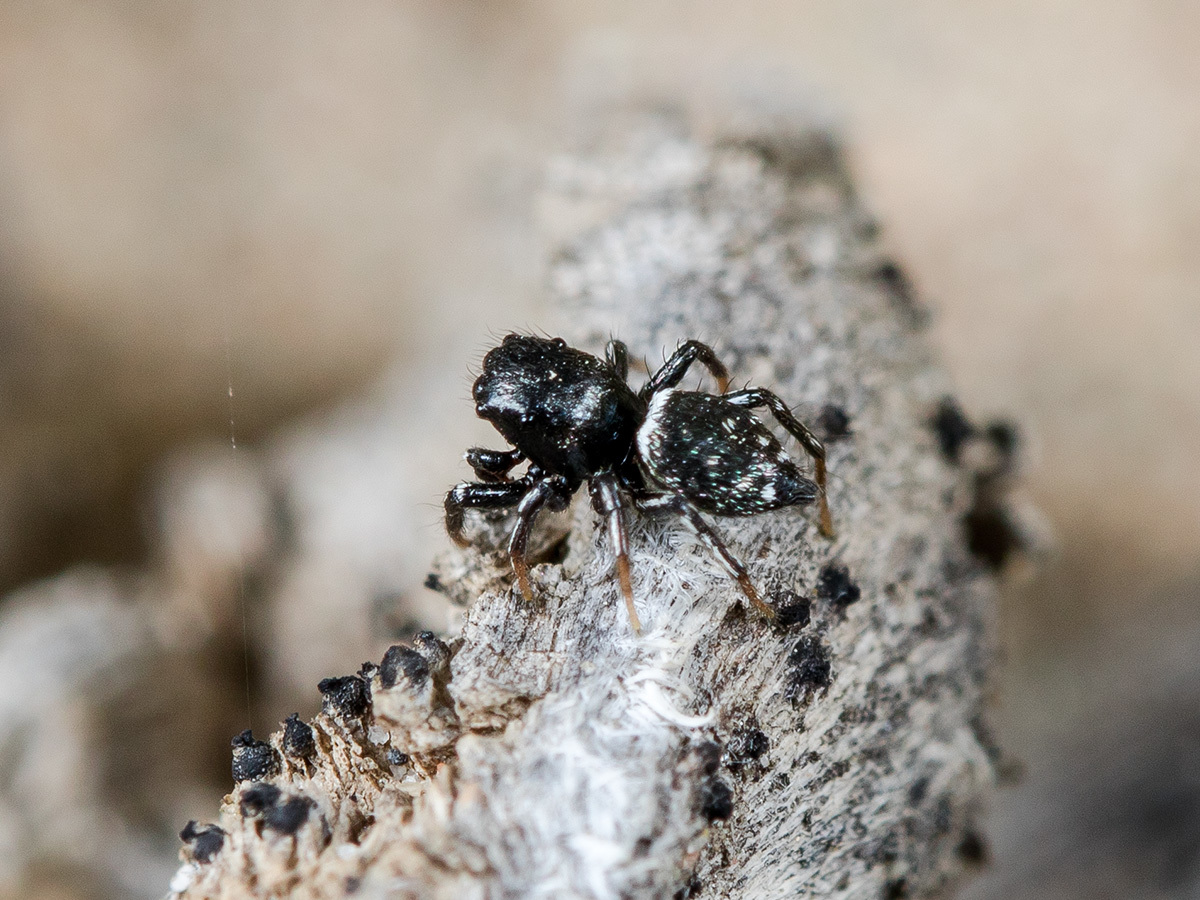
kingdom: Animalia
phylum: Arthropoda
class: Arachnida
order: Araneae
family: Salticidae
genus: Heliophanus
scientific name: Heliophanus curvidens
